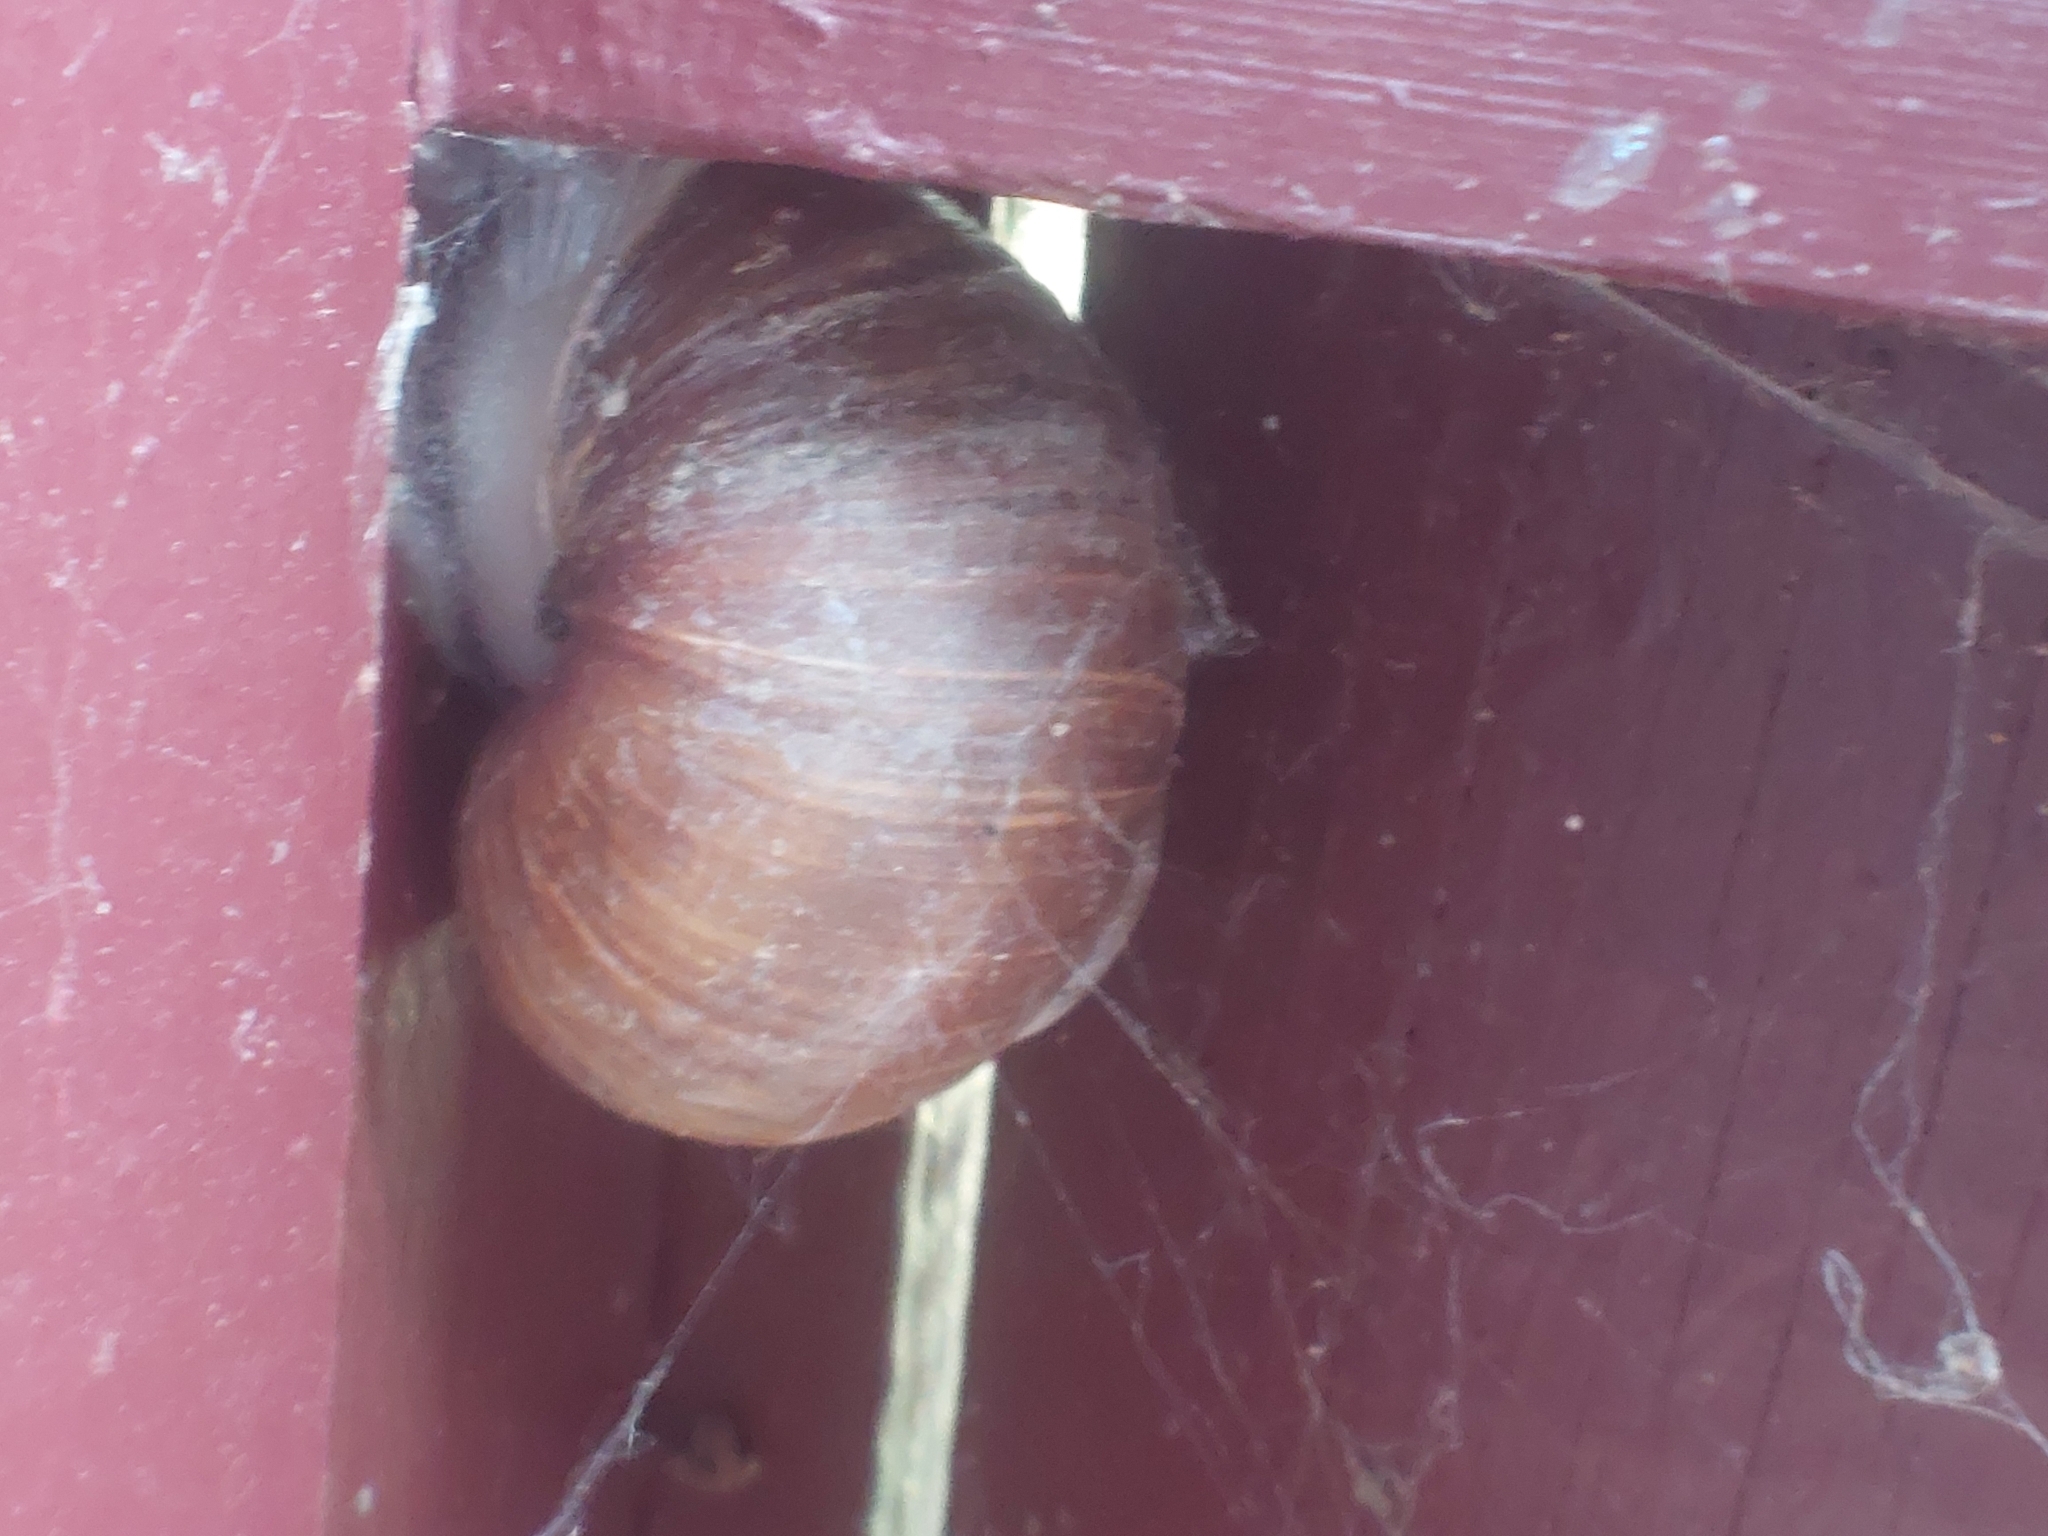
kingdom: Animalia
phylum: Mollusca
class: Gastropoda
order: Stylommatophora
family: Helicidae
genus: Helix
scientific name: Helix pomatia
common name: Roman snail
